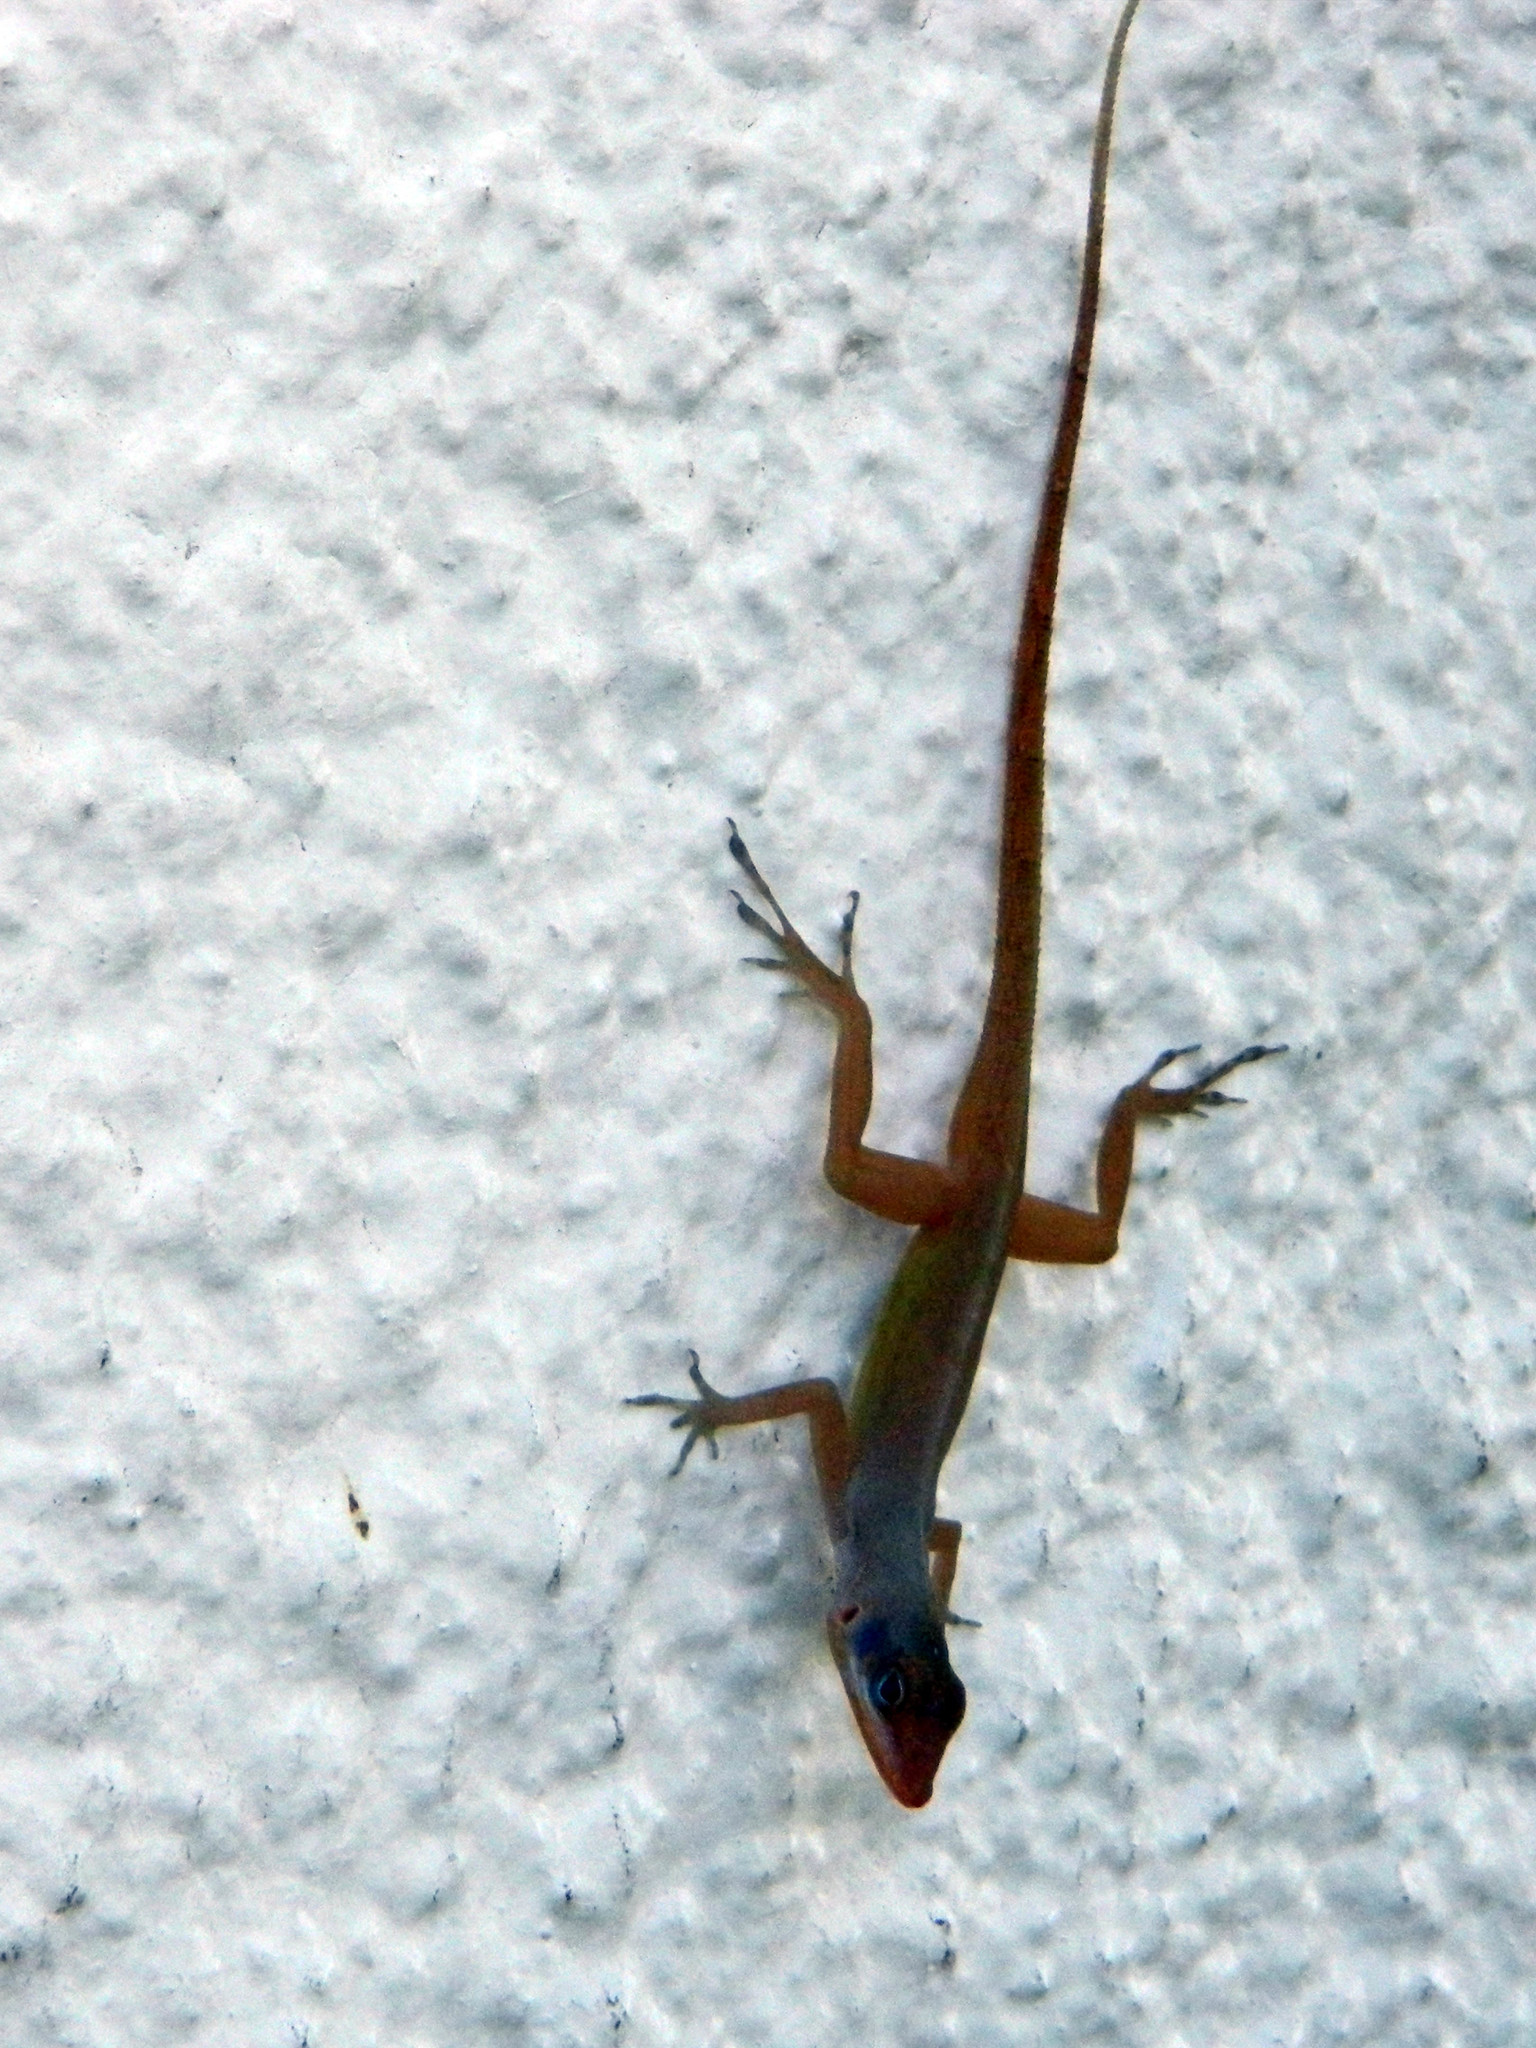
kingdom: Animalia
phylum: Chordata
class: Squamata
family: Dactyloidae
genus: Anolis
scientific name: Anolis wattsii
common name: Antigua bank bush anole
